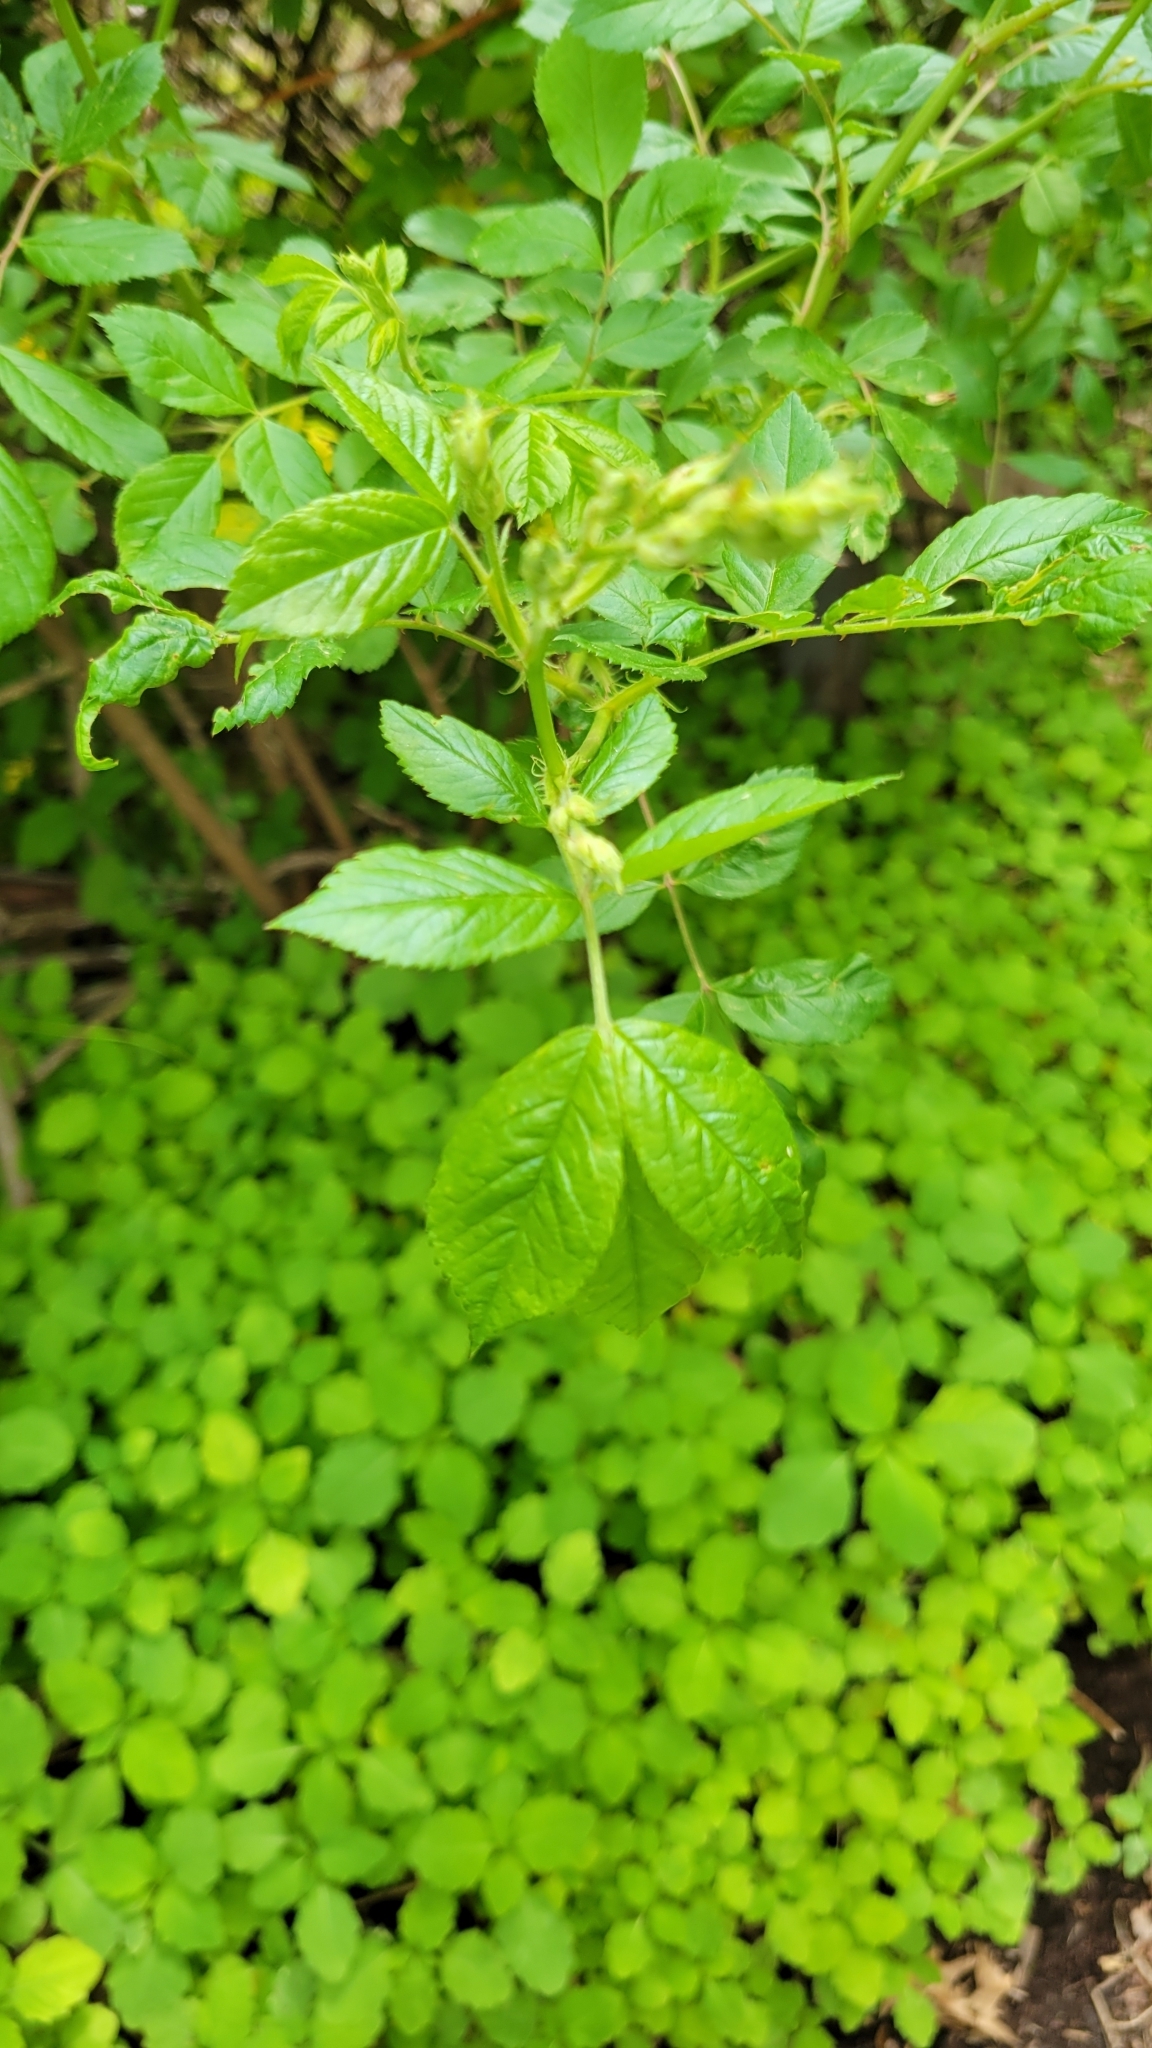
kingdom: Plantae
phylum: Tracheophyta
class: Magnoliopsida
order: Rosales
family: Rosaceae
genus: Rosa
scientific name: Rosa multiflora
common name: Multiflora rose
